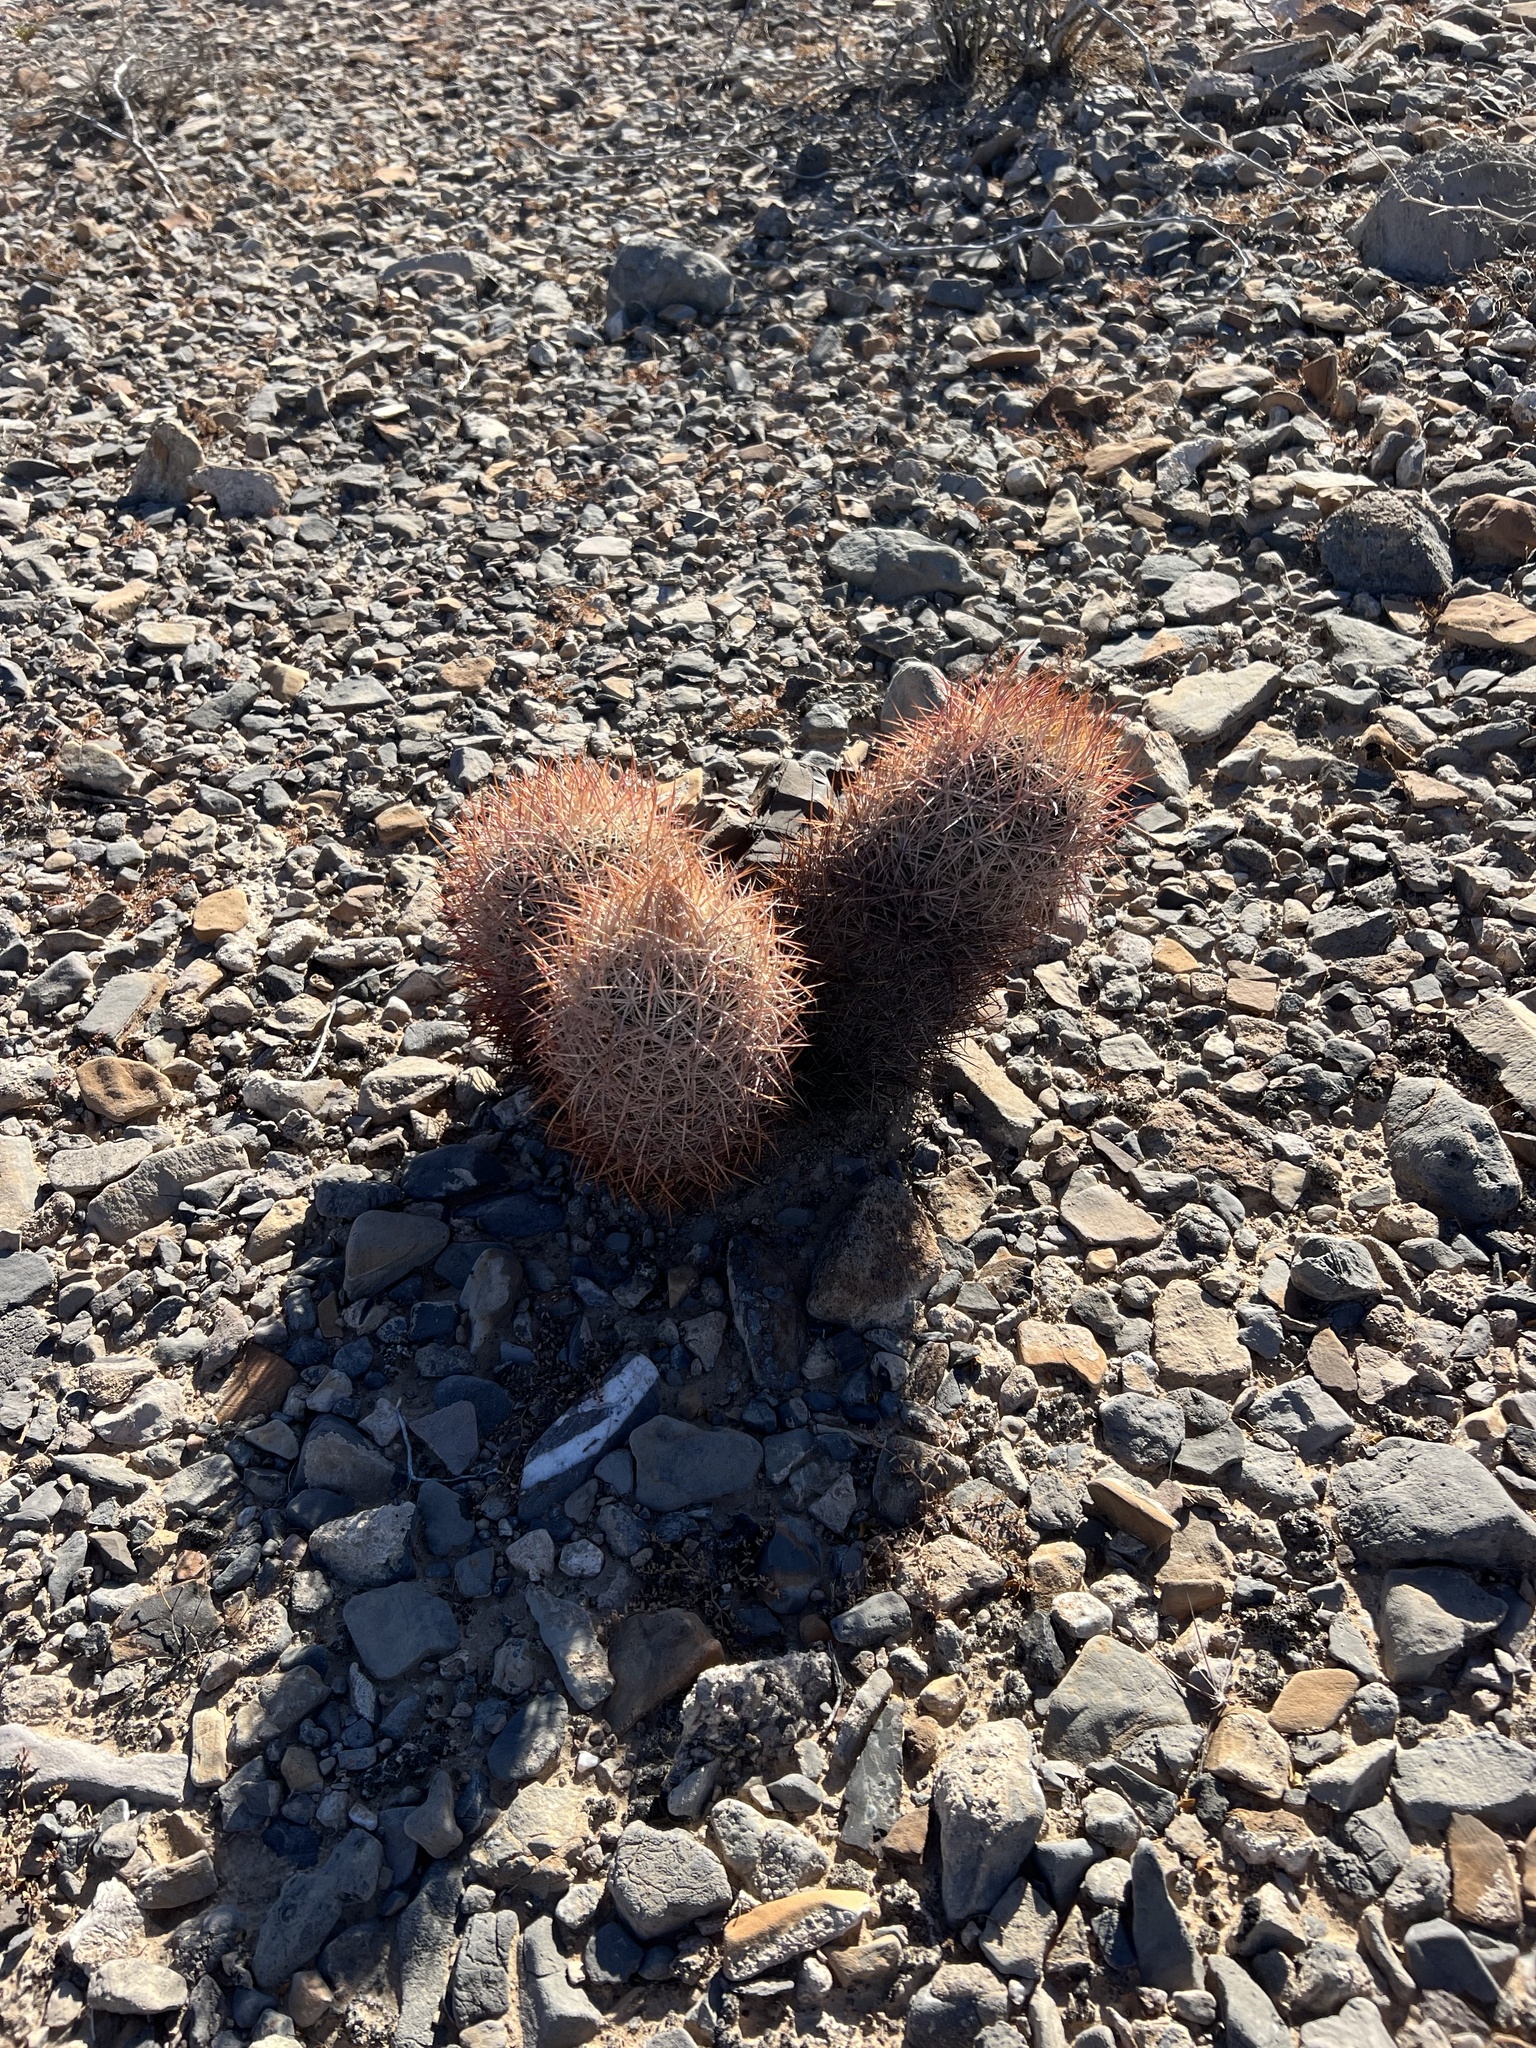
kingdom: Plantae
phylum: Tracheophyta
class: Magnoliopsida
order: Caryophyllales
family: Cactaceae
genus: Sclerocactus
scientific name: Sclerocactus johnsonii
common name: Eight-spine fishhook cactus
